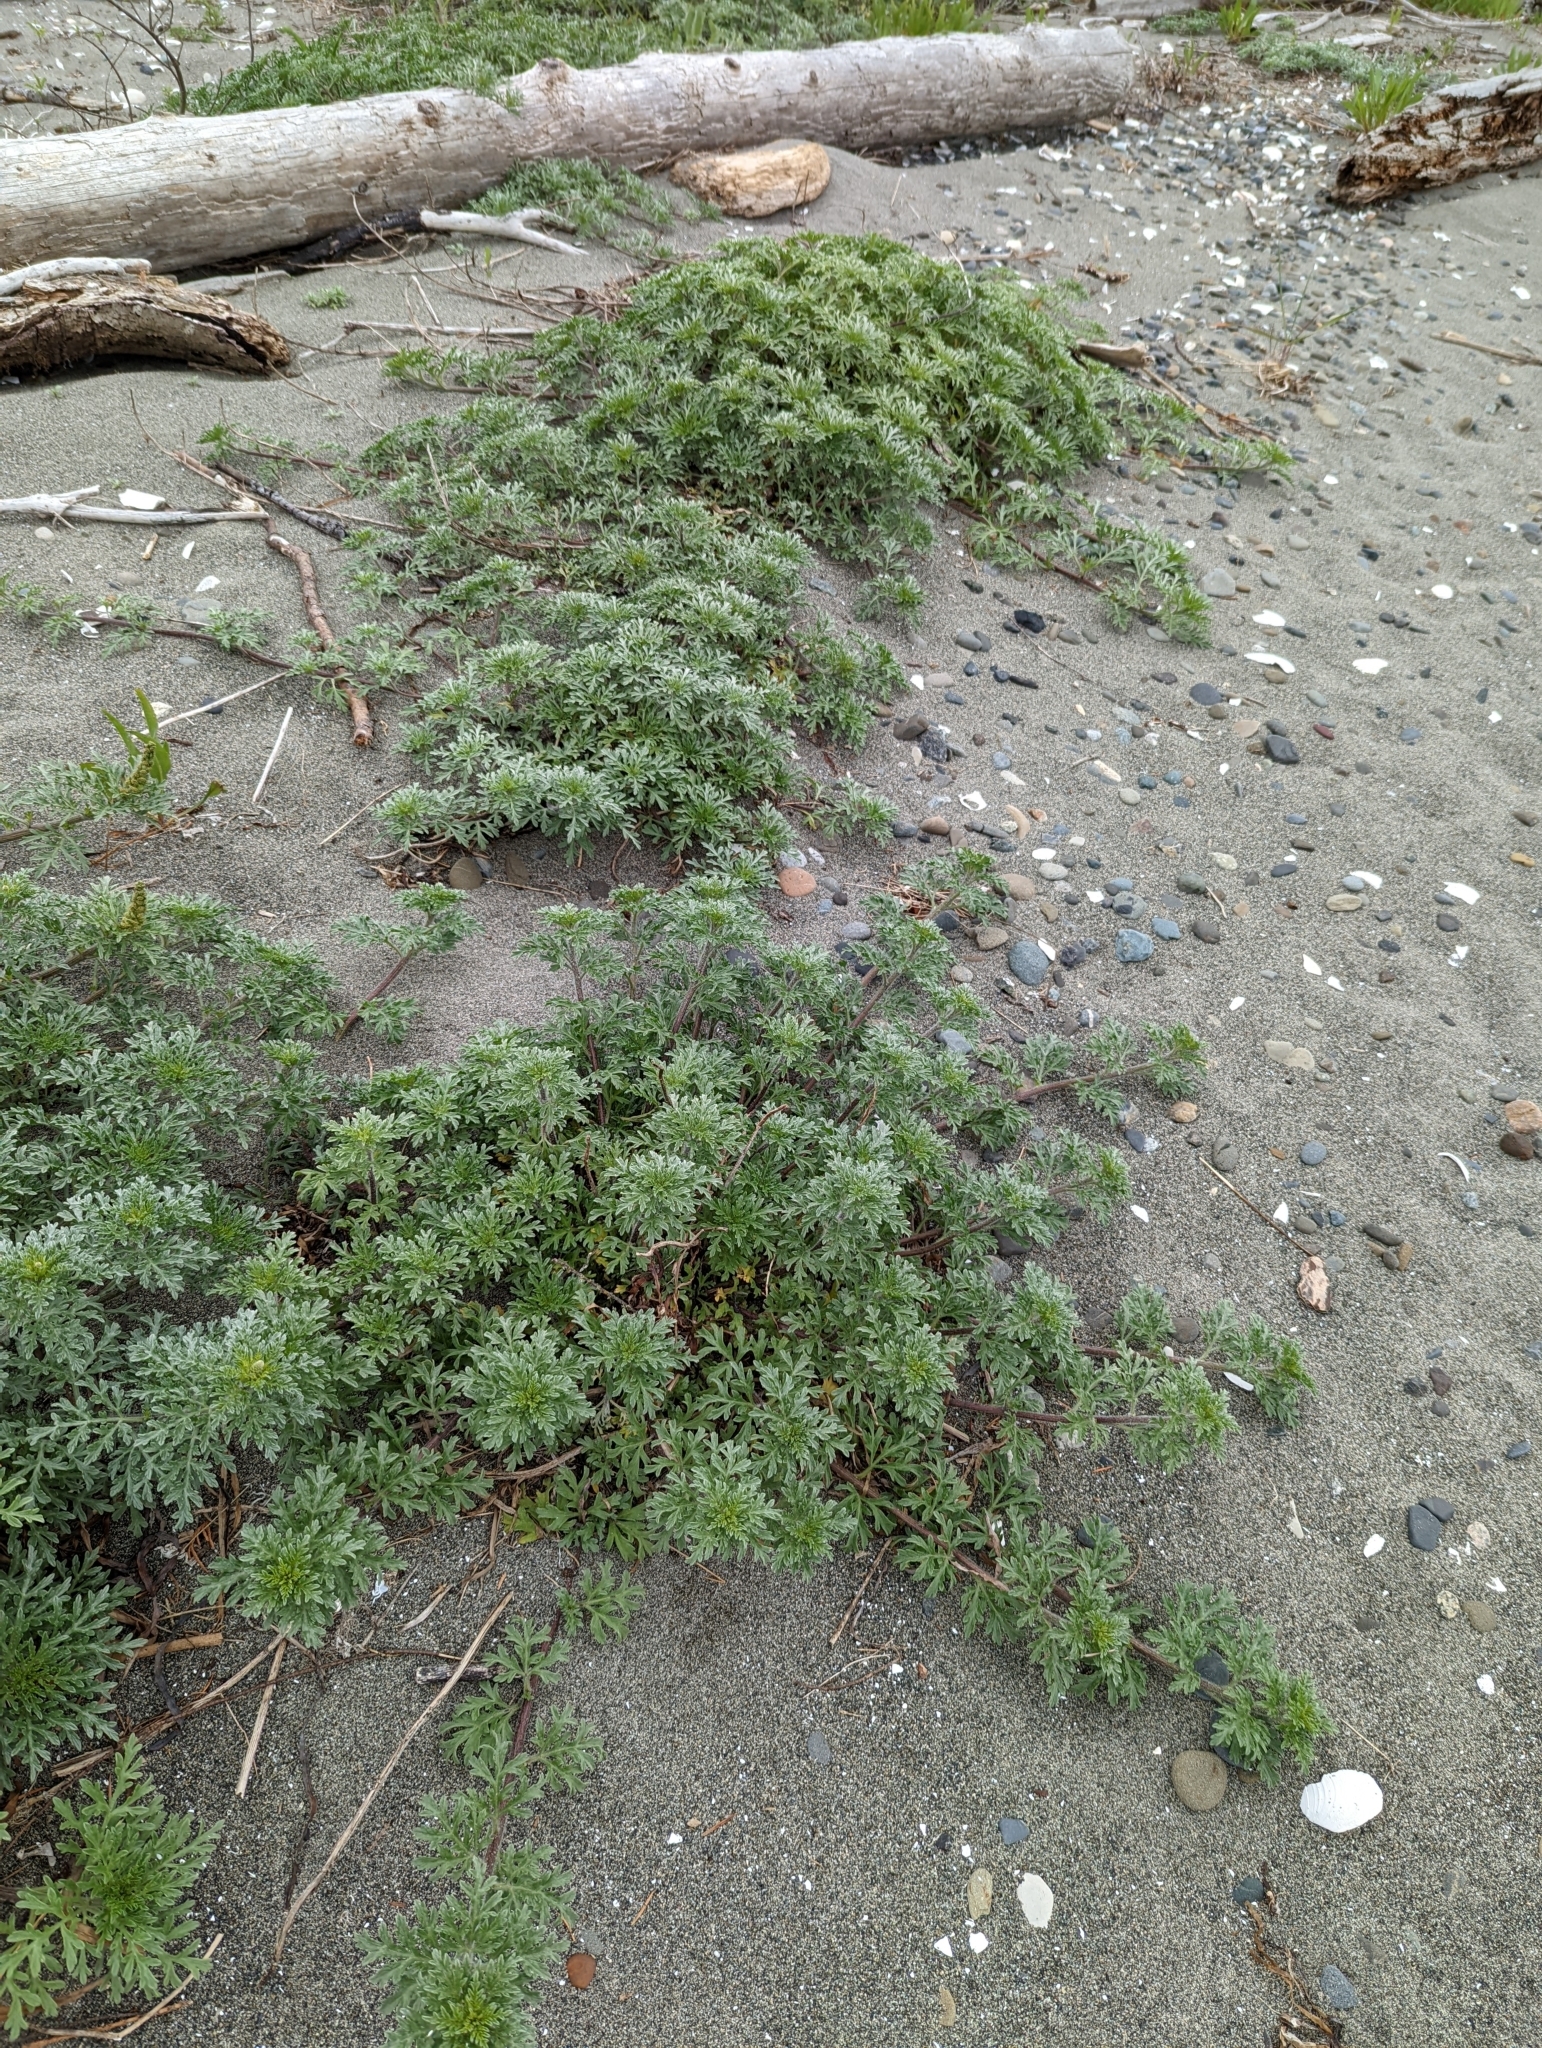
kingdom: Plantae
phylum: Tracheophyta
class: Magnoliopsida
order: Asterales
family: Asteraceae
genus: Ambrosia
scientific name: Ambrosia chamissonis
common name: Beachbur
